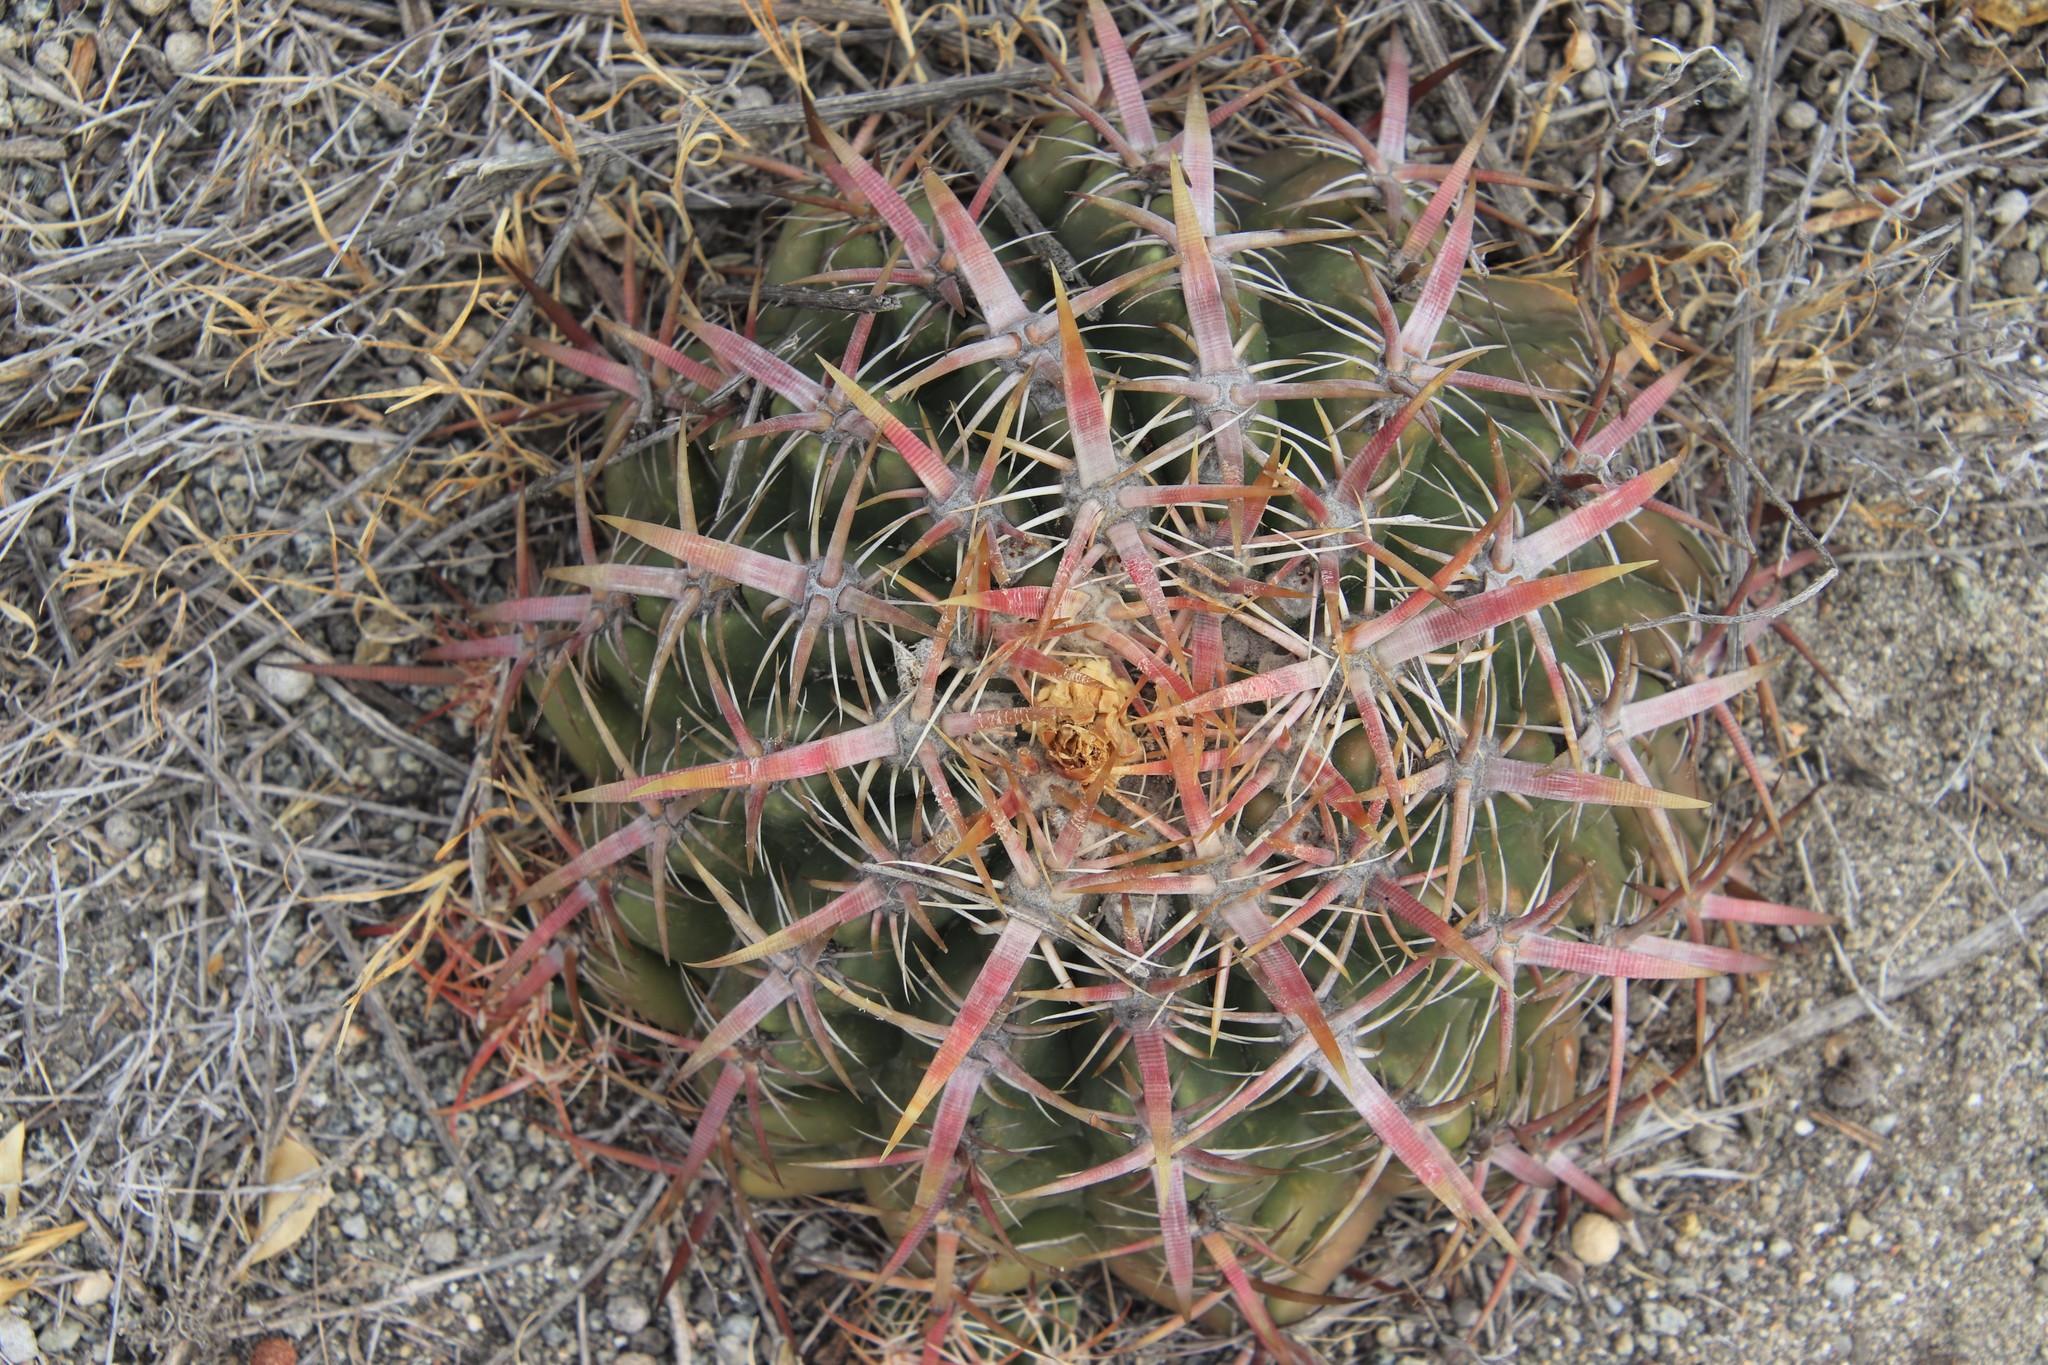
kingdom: Plantae
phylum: Tracheophyta
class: Magnoliopsida
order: Caryophyllales
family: Cactaceae
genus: Ferocactus
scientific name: Ferocactus viridescens
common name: San diego barrel cactus
